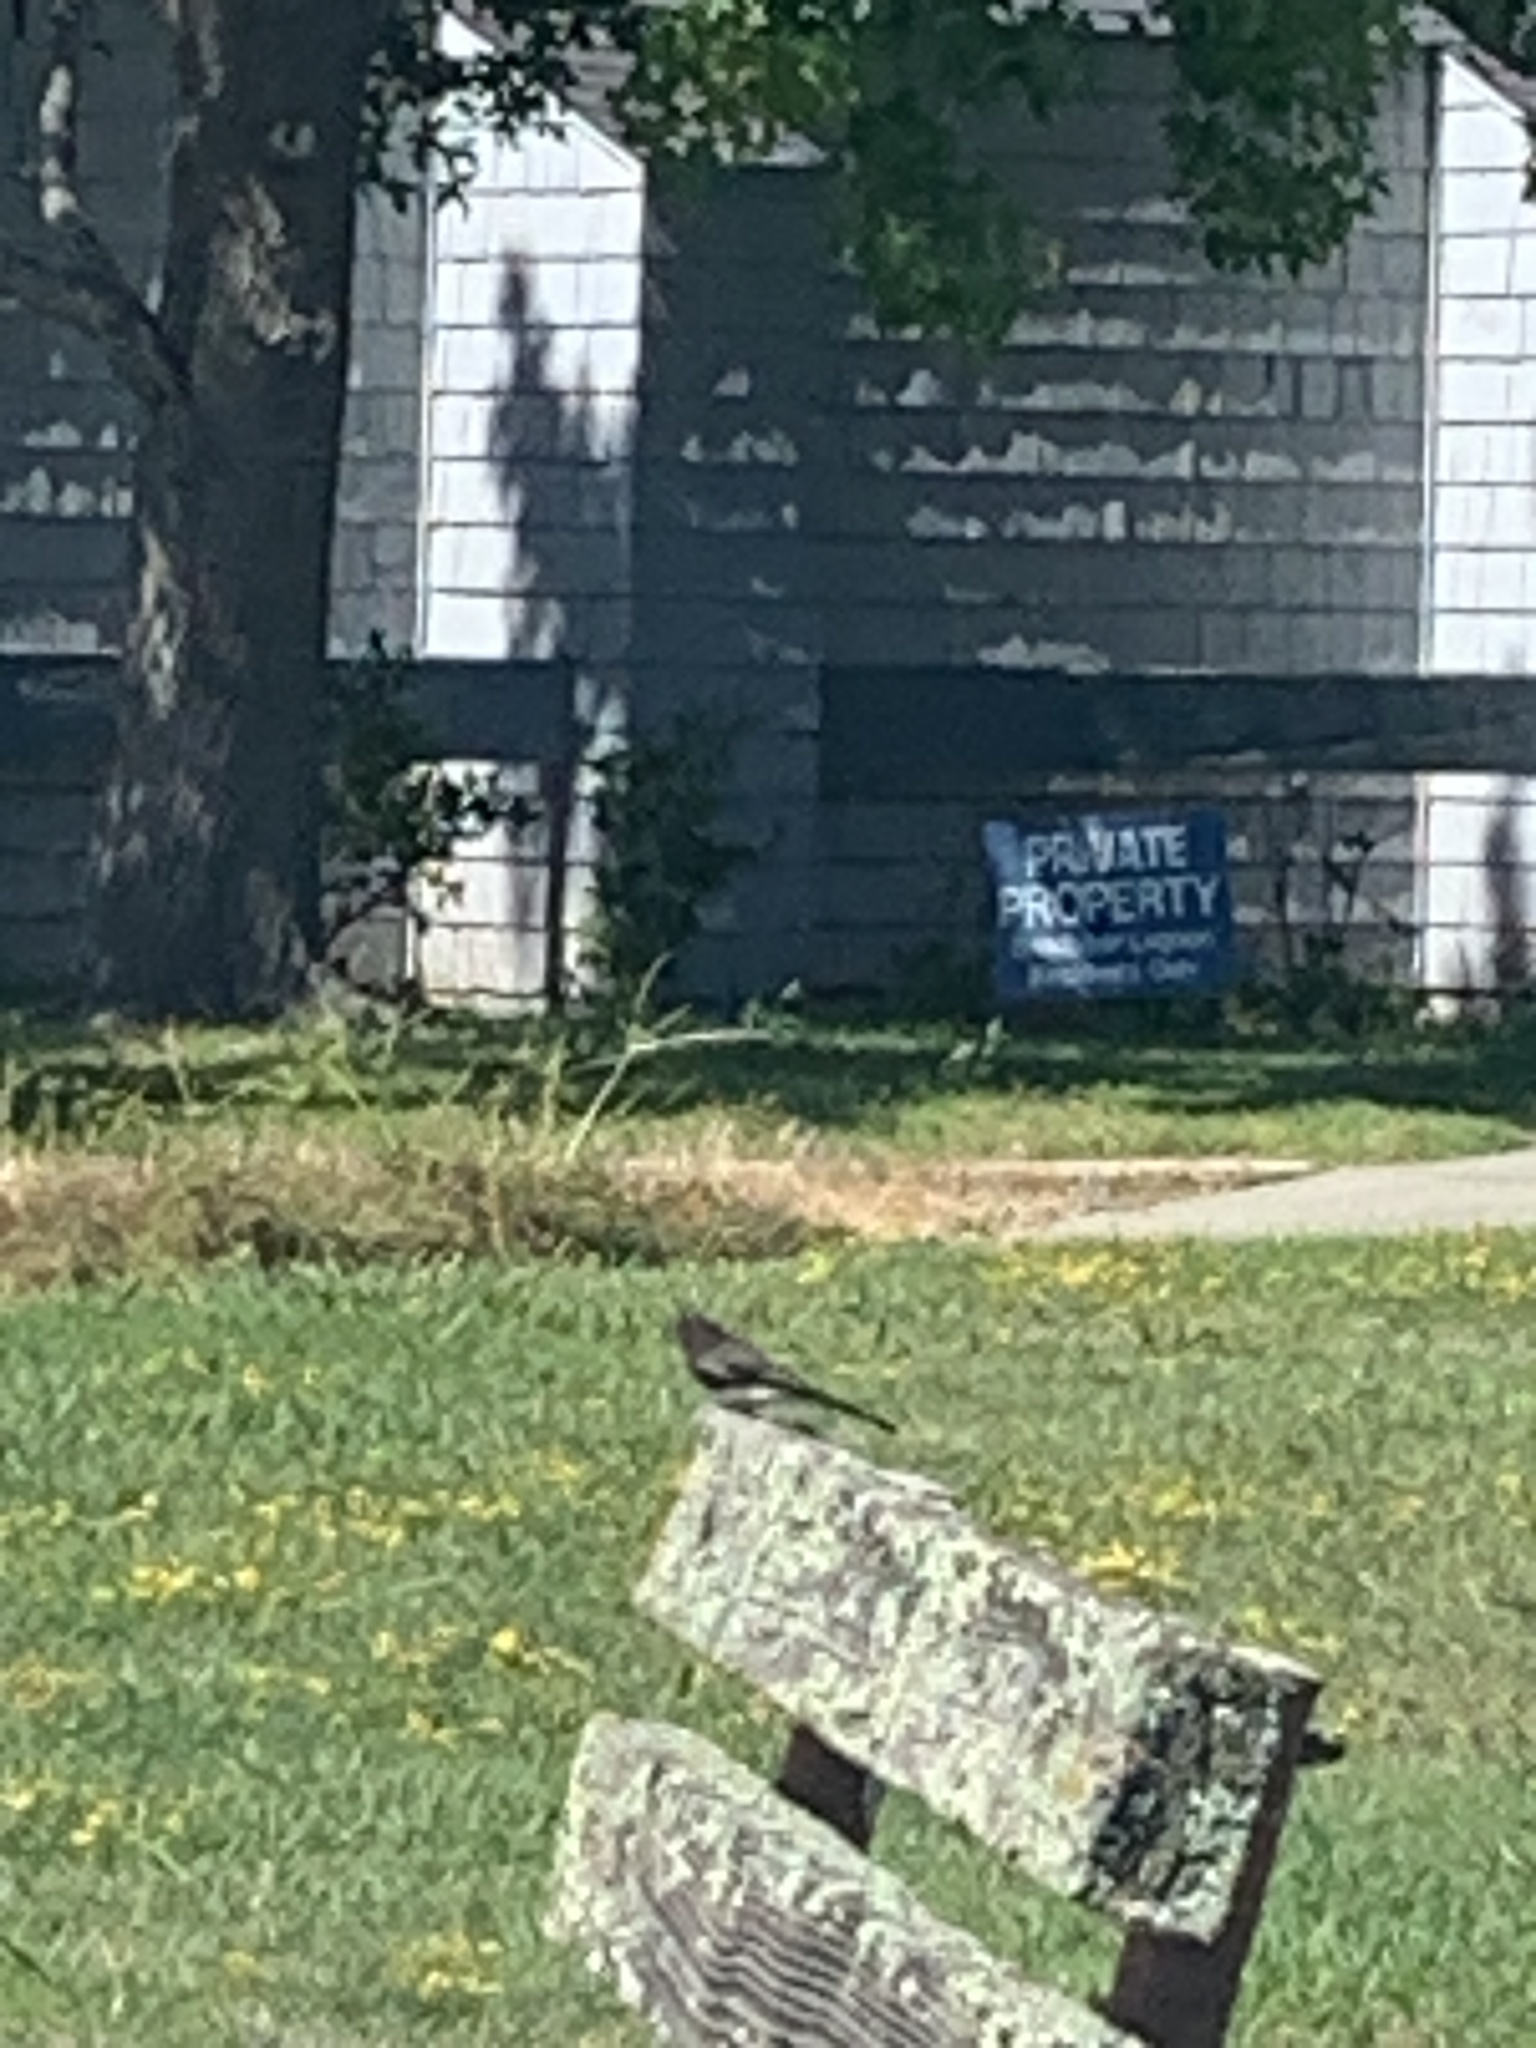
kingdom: Animalia
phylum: Chordata
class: Aves
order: Passeriformes
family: Tyrannidae
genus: Sayornis
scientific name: Sayornis nigricans
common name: Black phoebe
